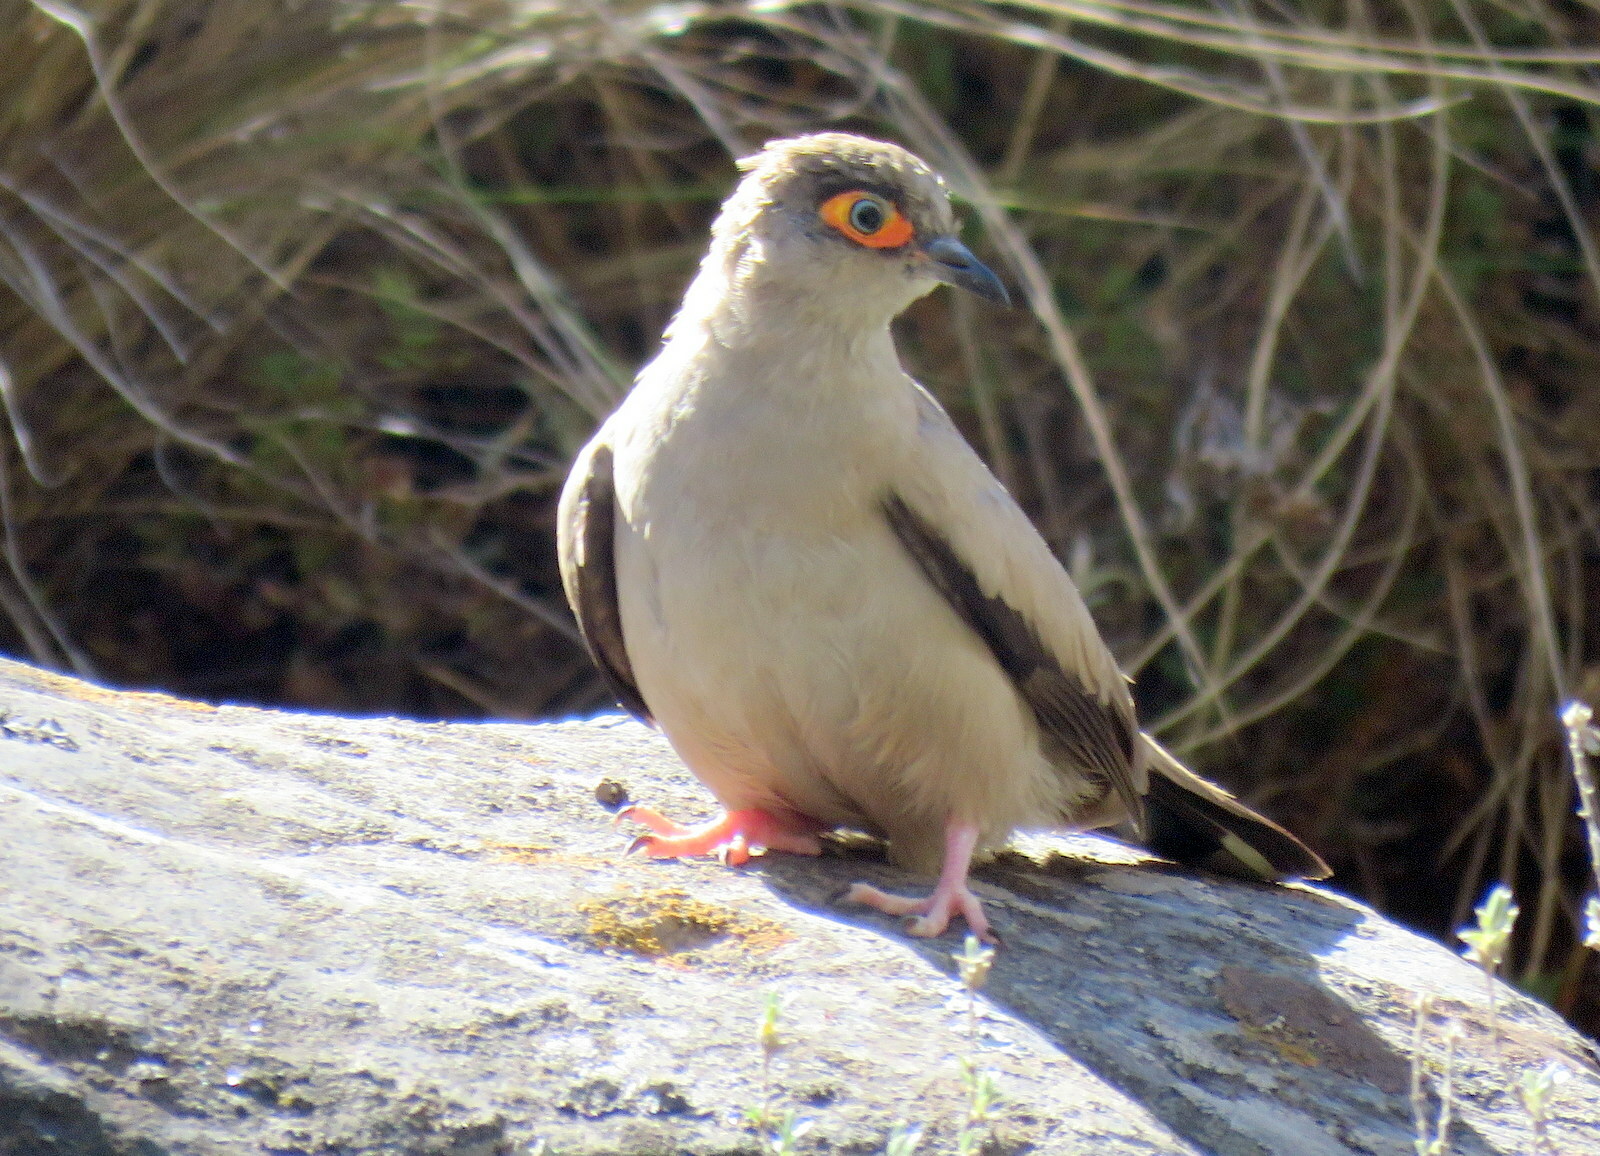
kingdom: Animalia
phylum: Chordata
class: Aves
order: Columbiformes
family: Columbidae
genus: Metriopelia
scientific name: Metriopelia morenoi
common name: Moreno's ground dove
